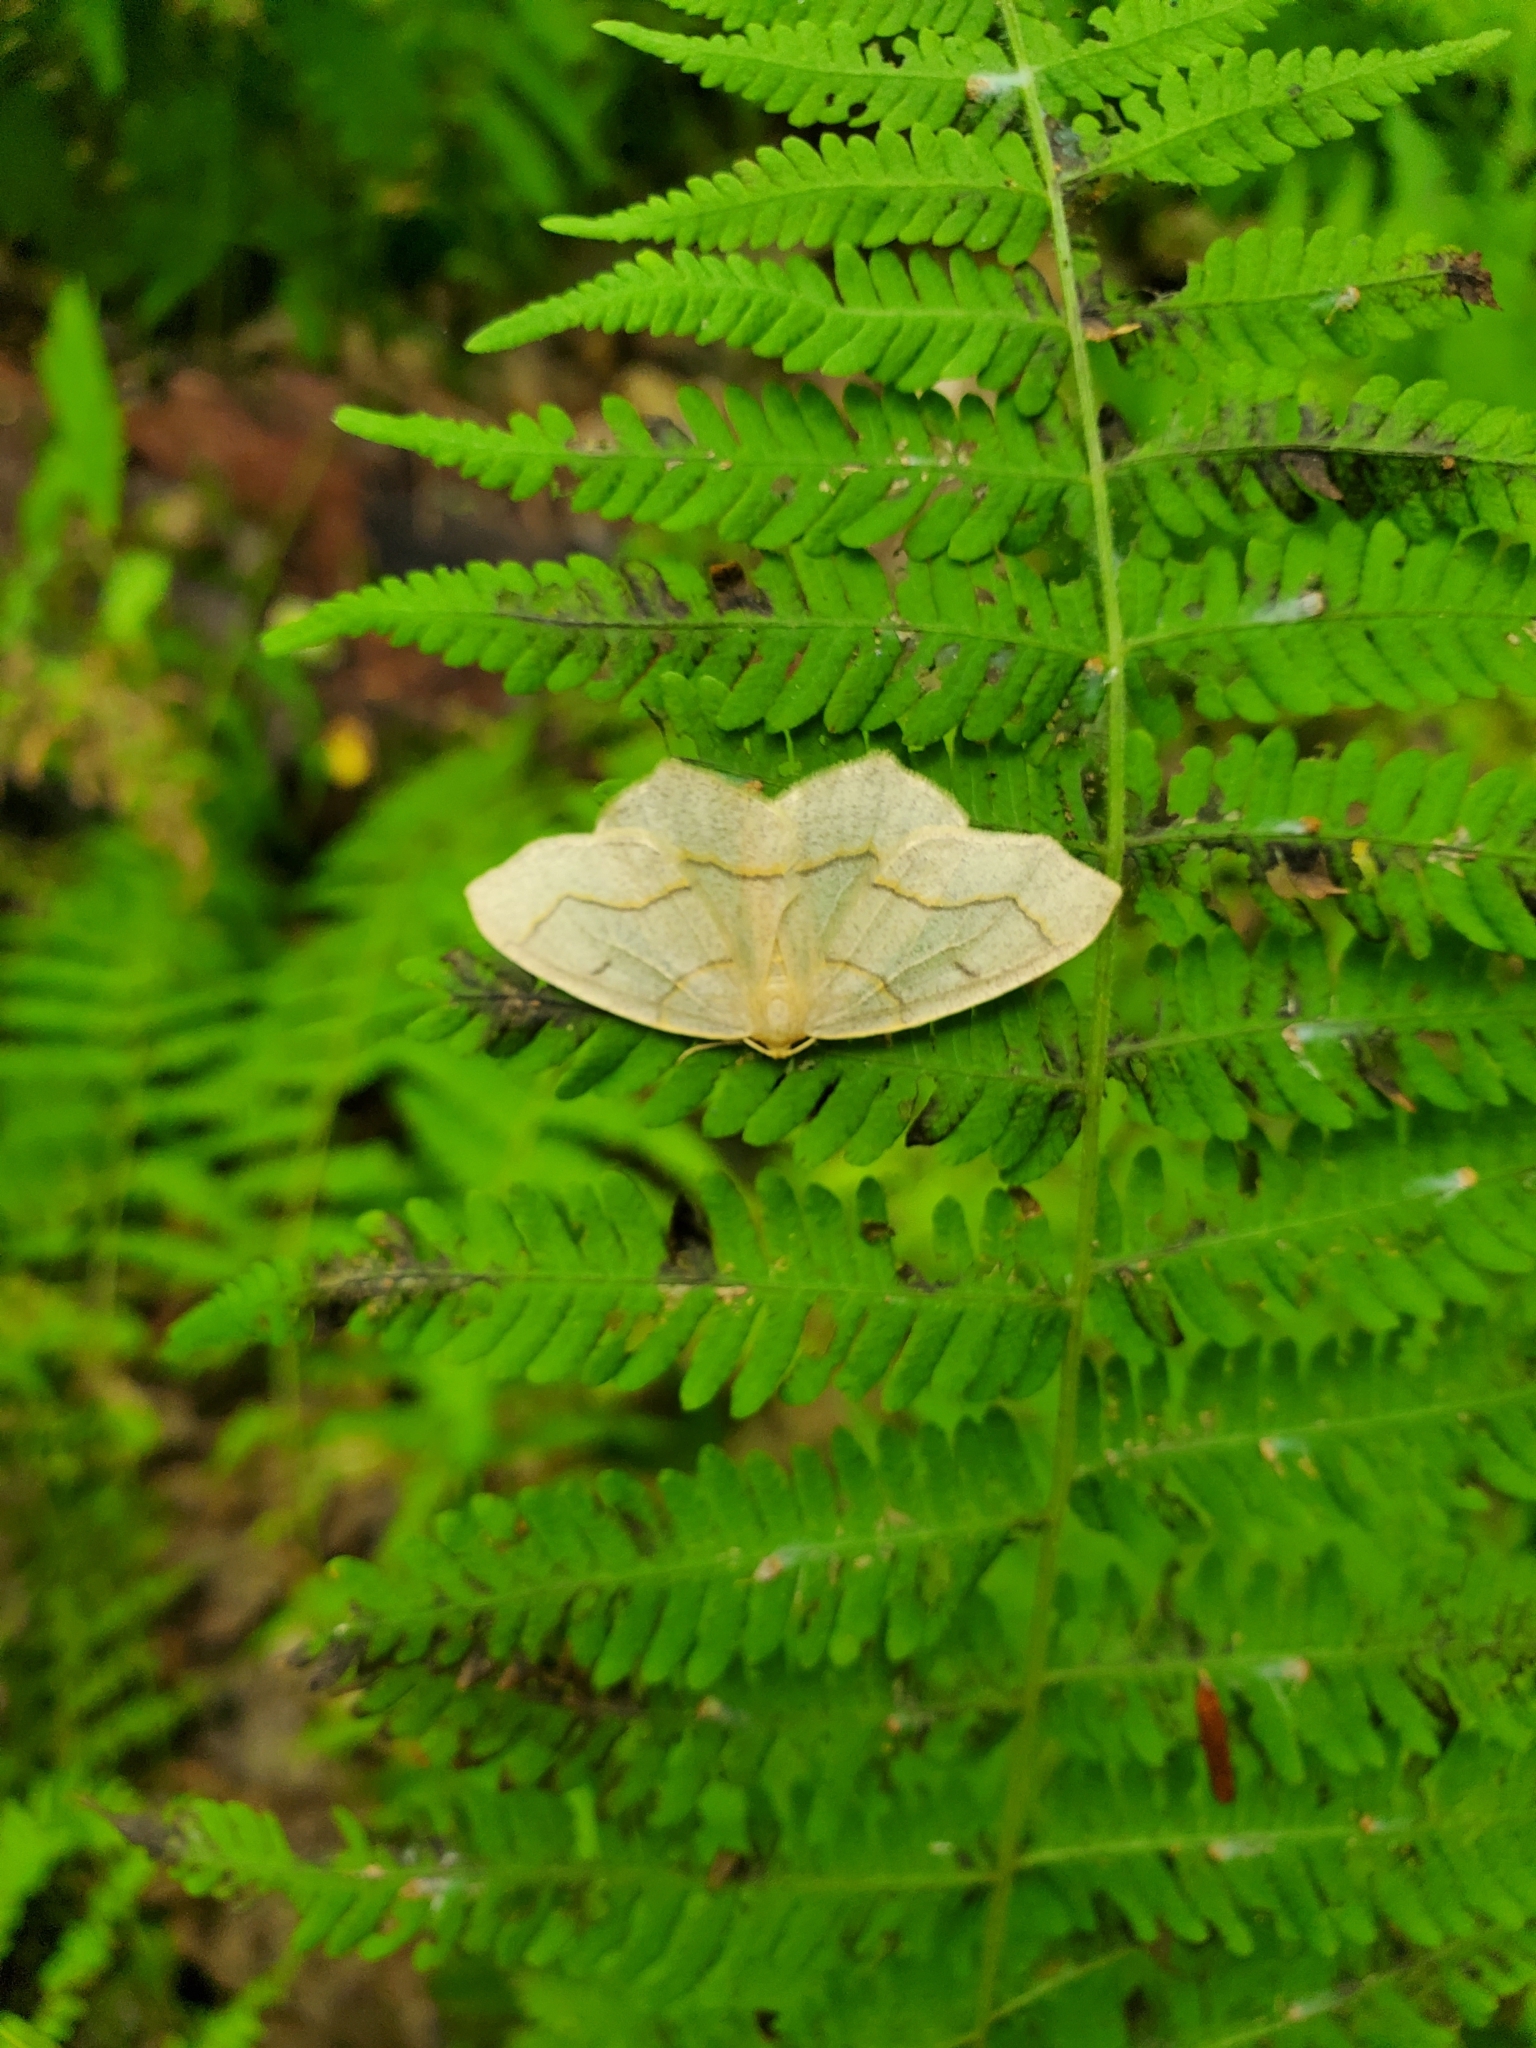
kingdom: Animalia
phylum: Arthropoda
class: Insecta
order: Lepidoptera
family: Geometridae
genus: Lambdina
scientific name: Lambdina fiscellaria
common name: Hemlock looper
